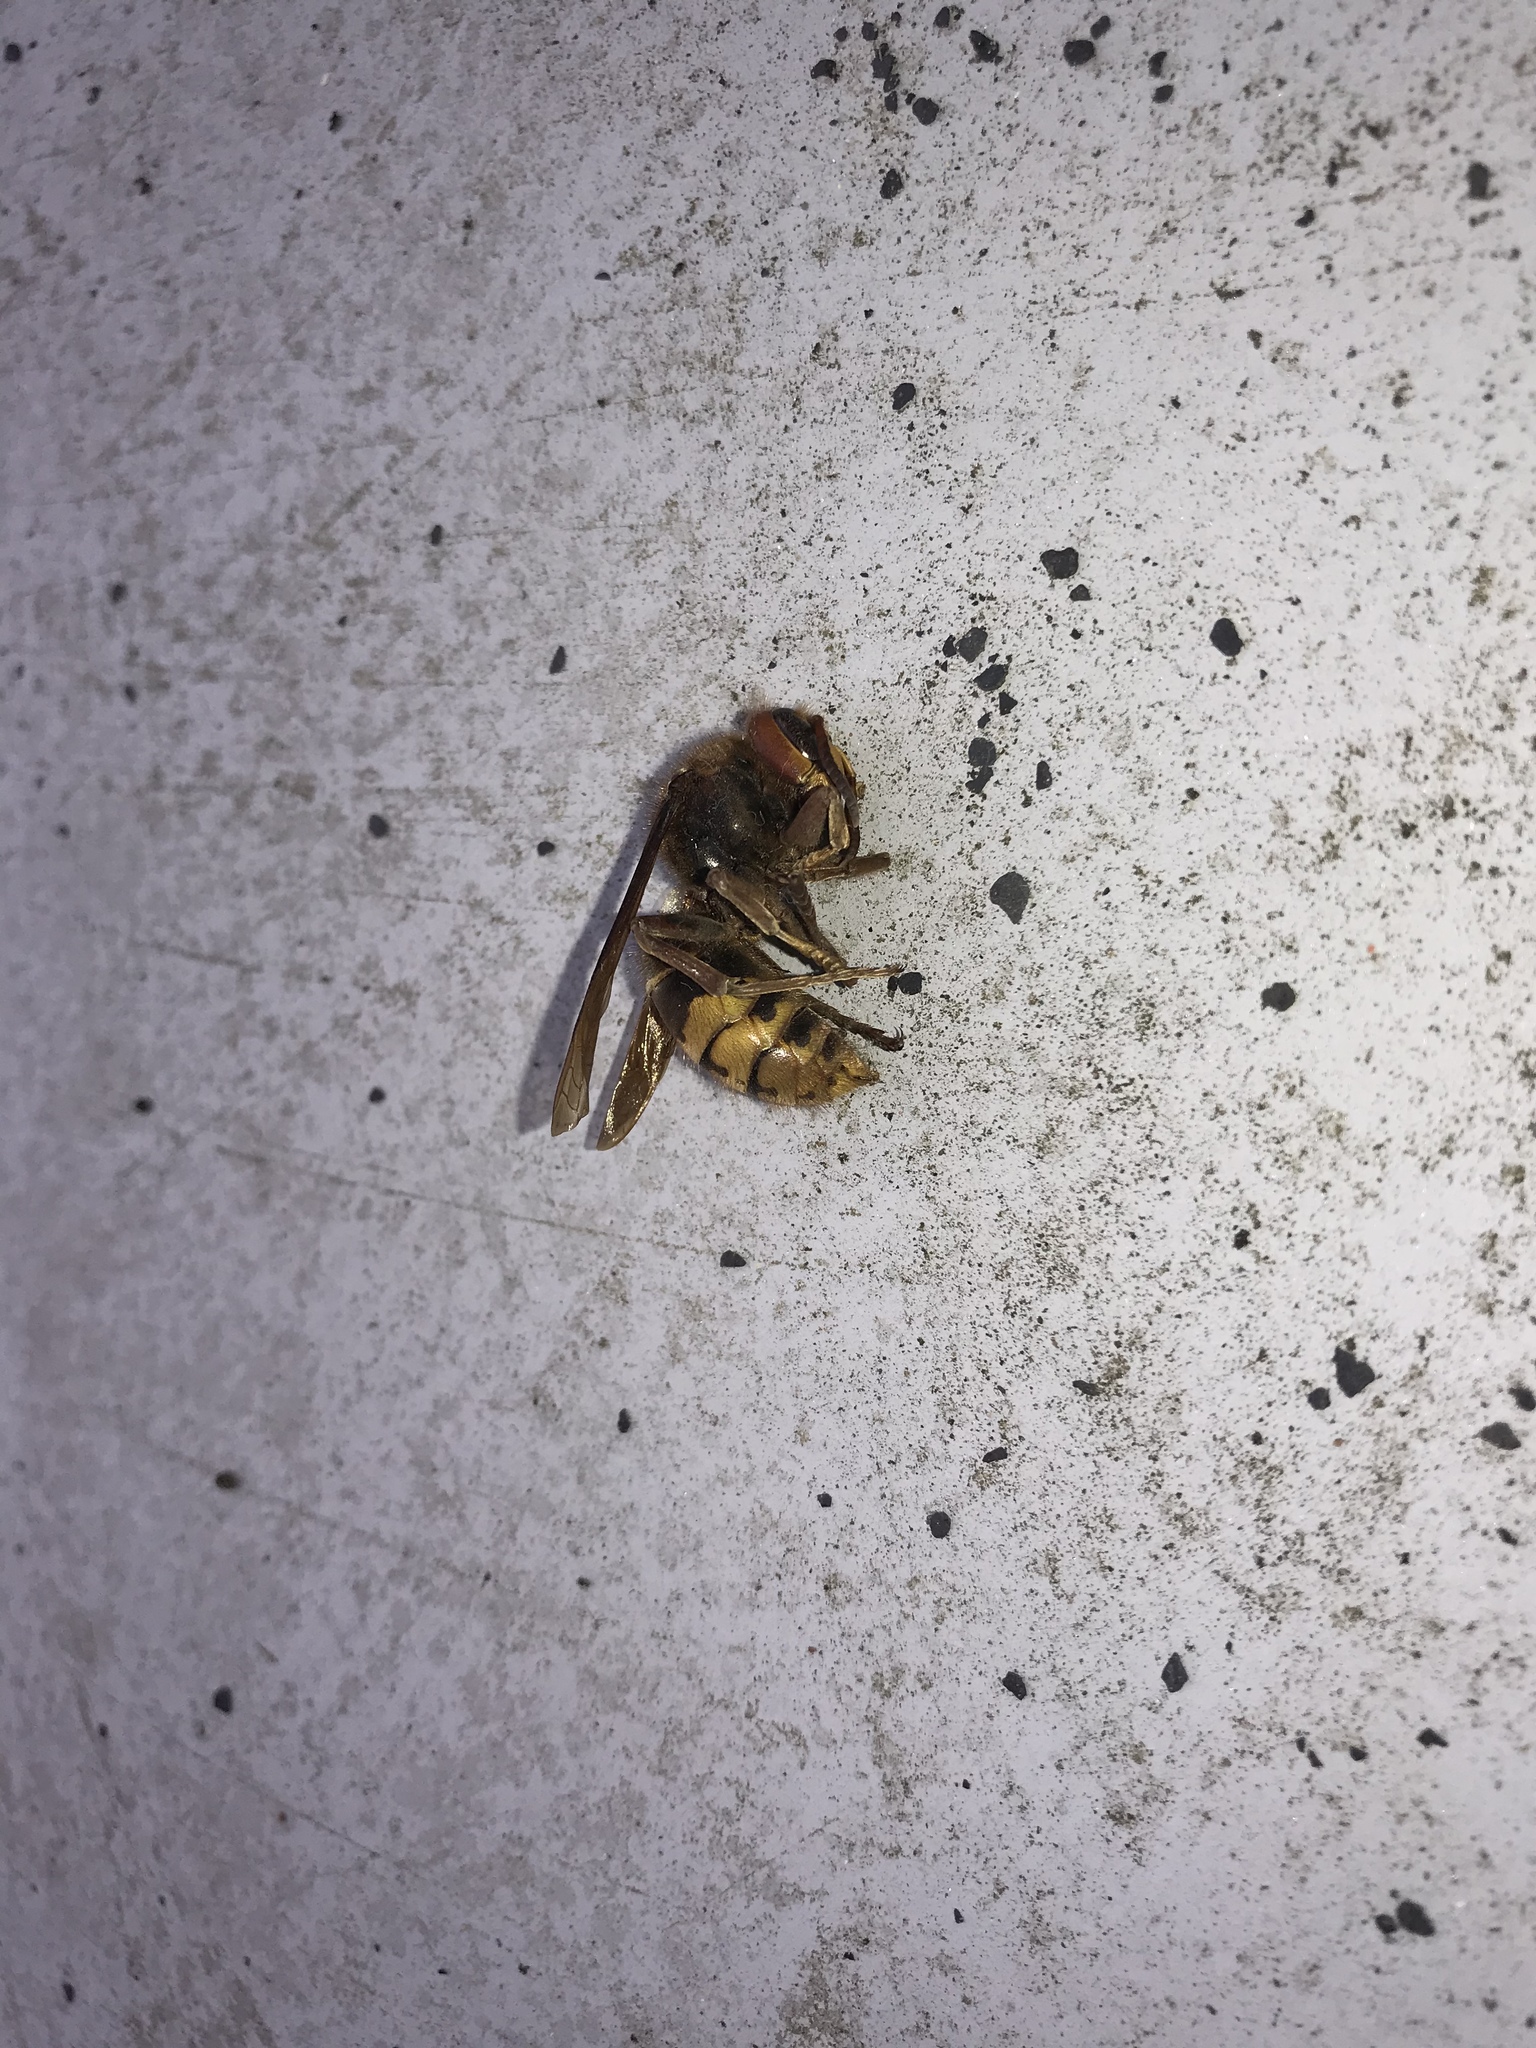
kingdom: Animalia
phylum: Arthropoda
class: Insecta
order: Hymenoptera
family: Vespidae
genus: Vespa
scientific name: Vespa crabro
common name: Hornet
